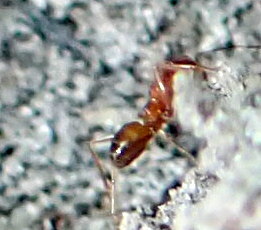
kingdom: Animalia
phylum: Arthropoda
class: Insecta
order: Hymenoptera
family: Formicidae
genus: Dorymyrmex
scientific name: Dorymyrmex bureni
